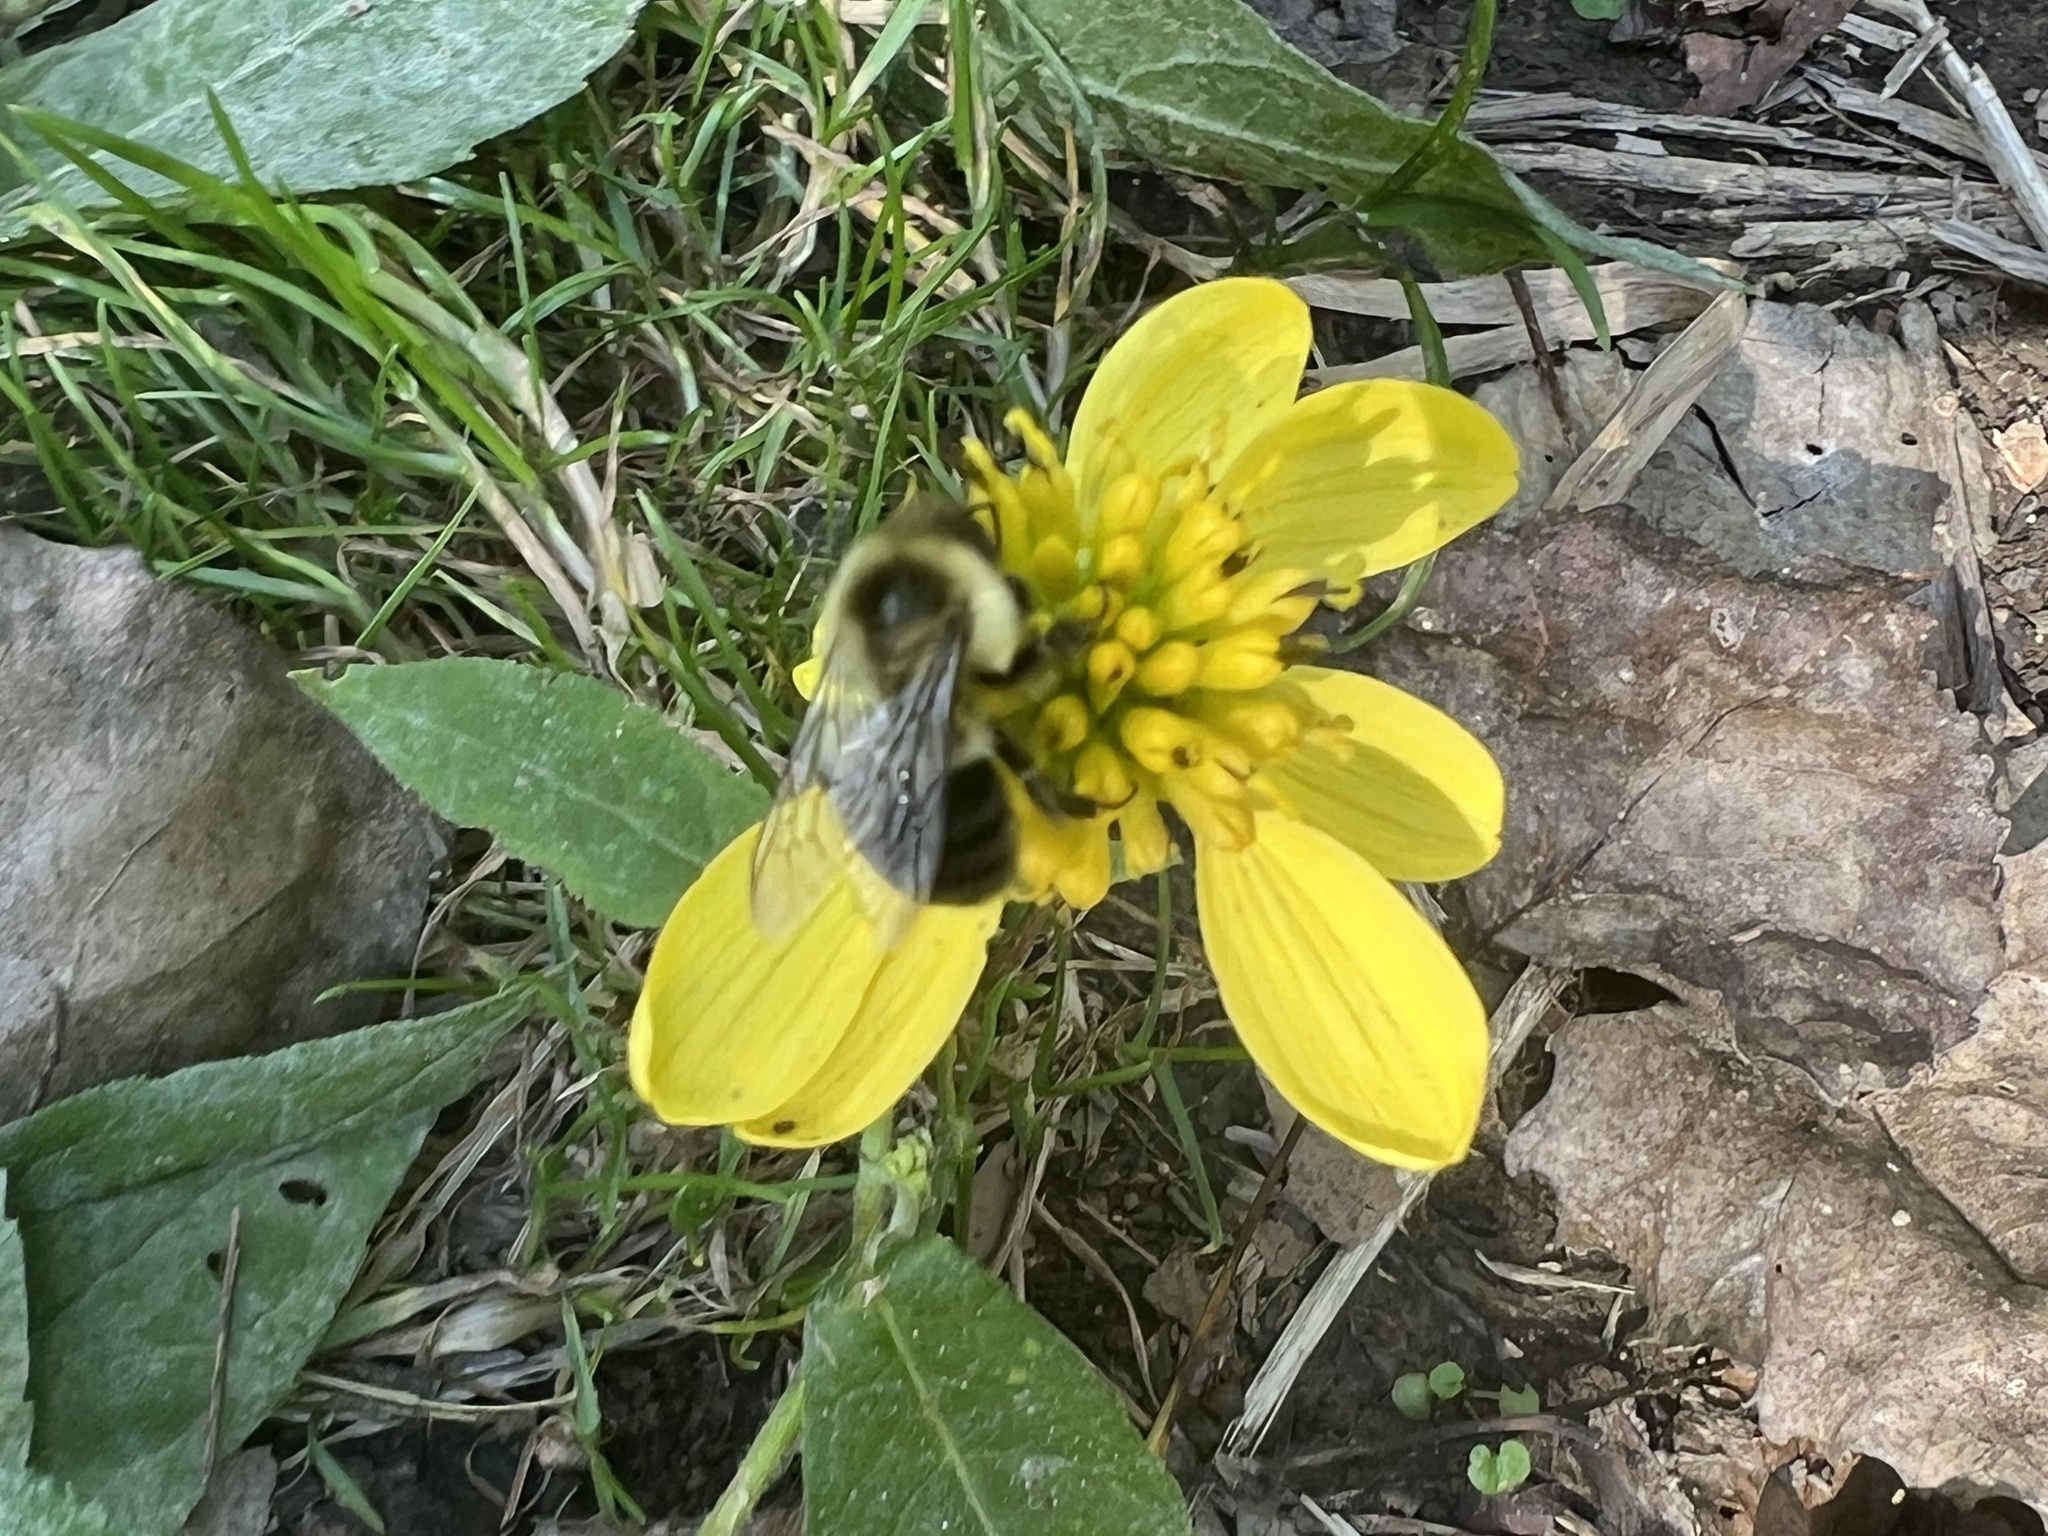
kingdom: Animalia
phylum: Arthropoda
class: Insecta
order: Hymenoptera
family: Apidae
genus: Bombus
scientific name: Bombus impatiens
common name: Common eastern bumble bee
